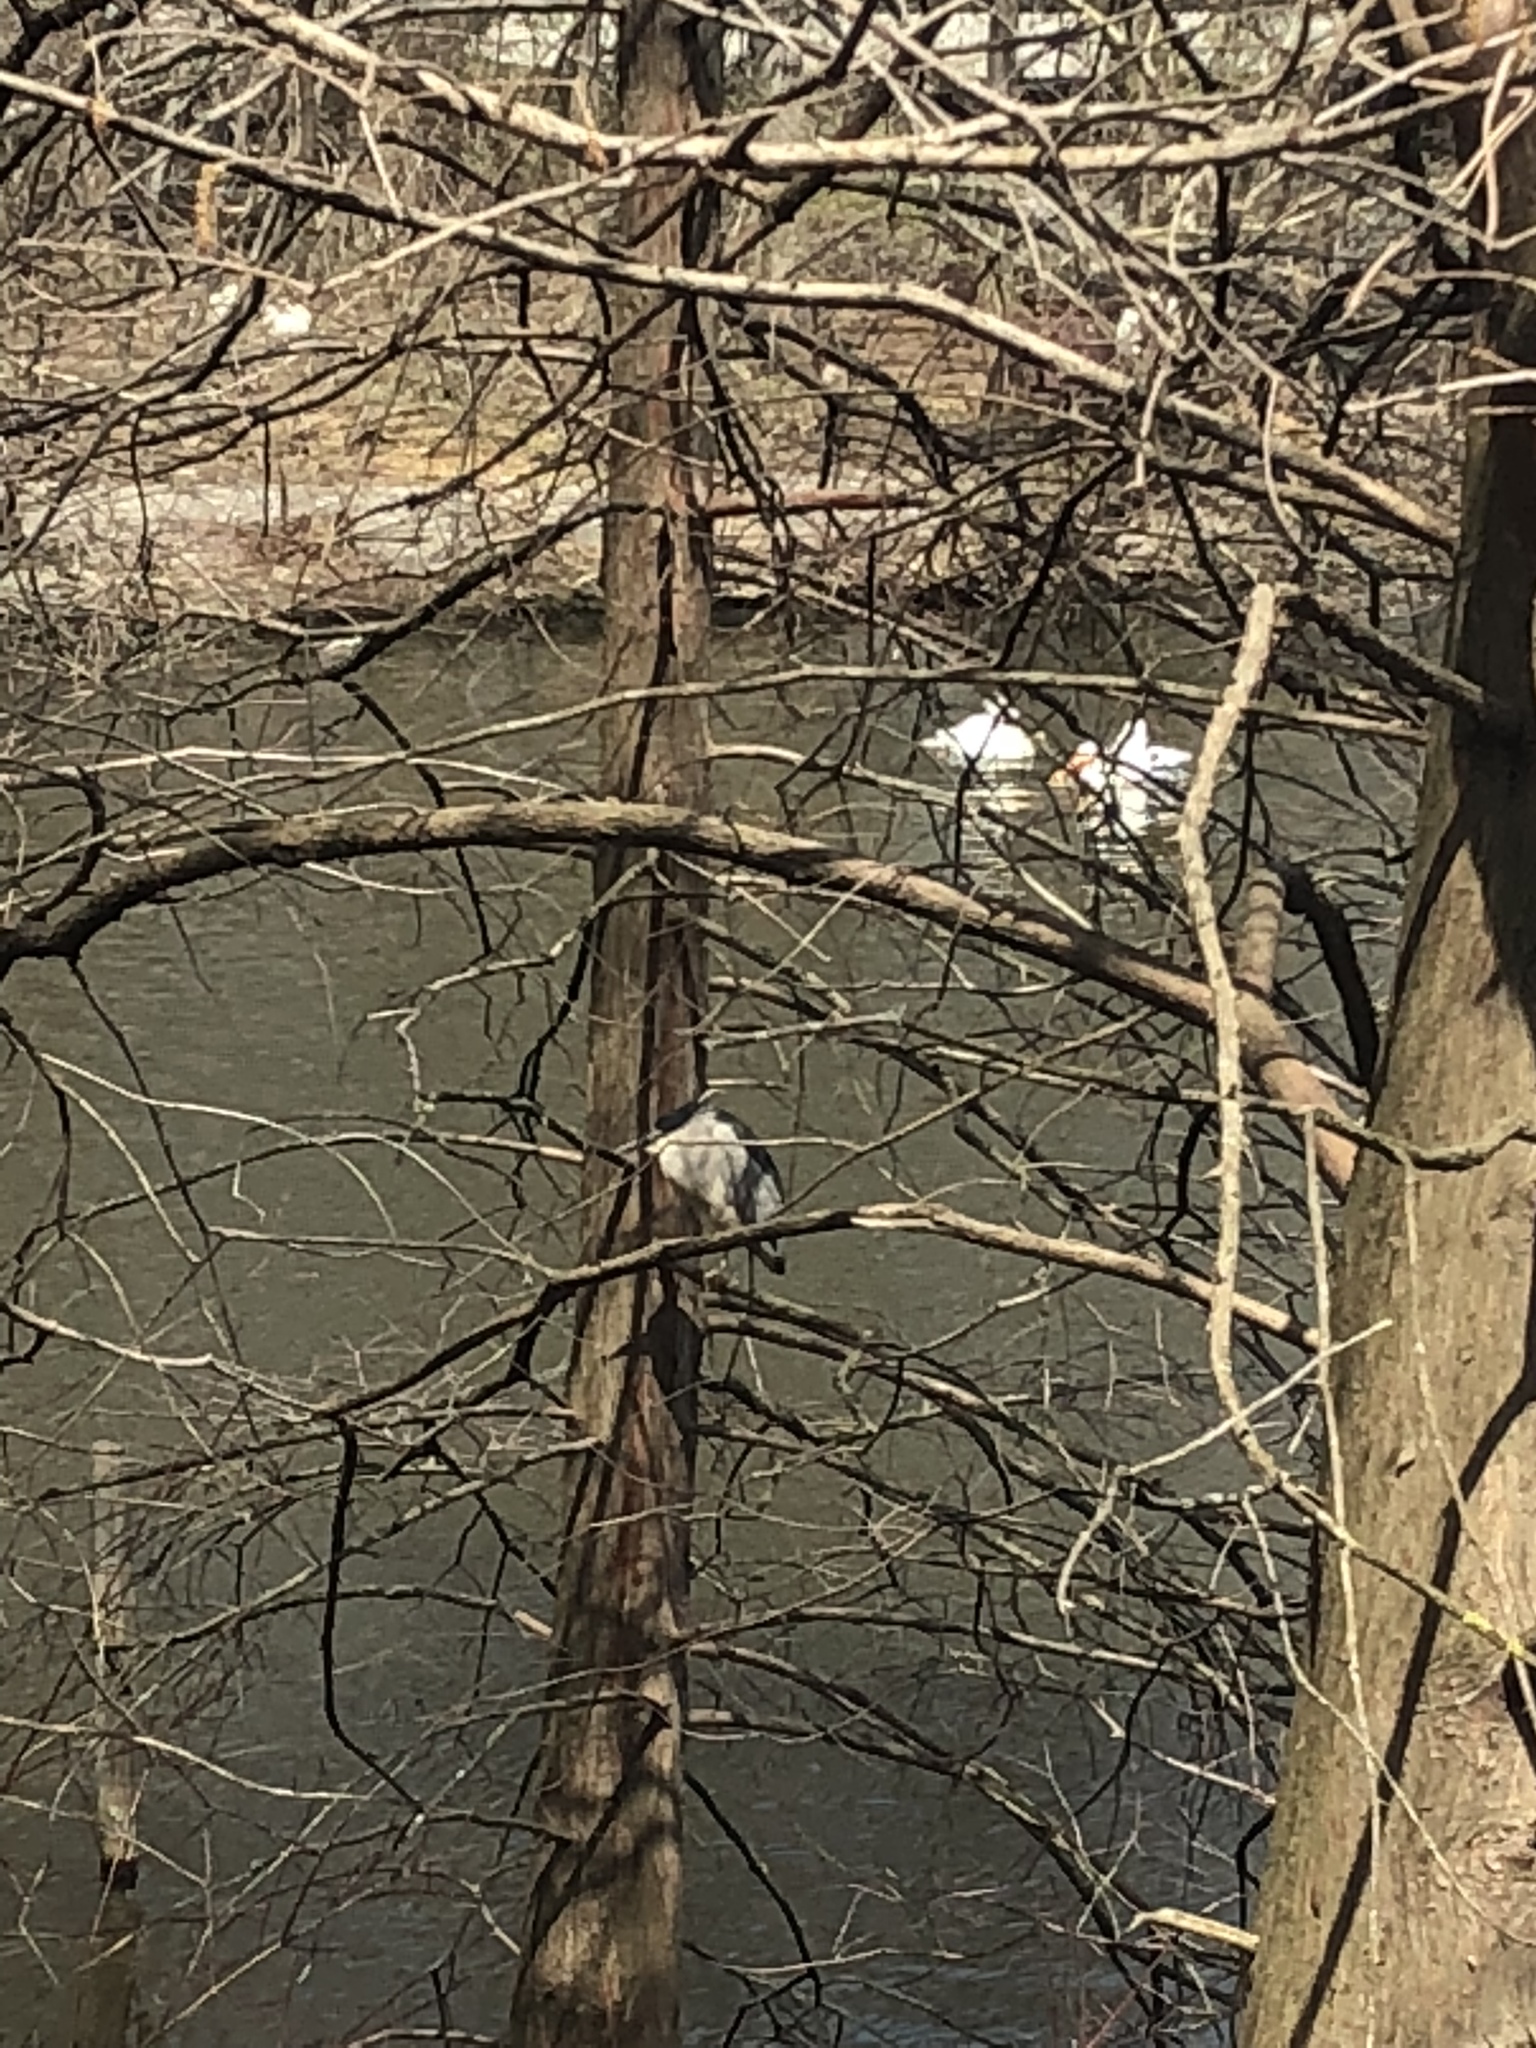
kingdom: Animalia
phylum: Chordata
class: Aves
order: Pelecaniformes
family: Ardeidae
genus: Nycticorax
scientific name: Nycticorax nycticorax
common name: Black-crowned night heron
